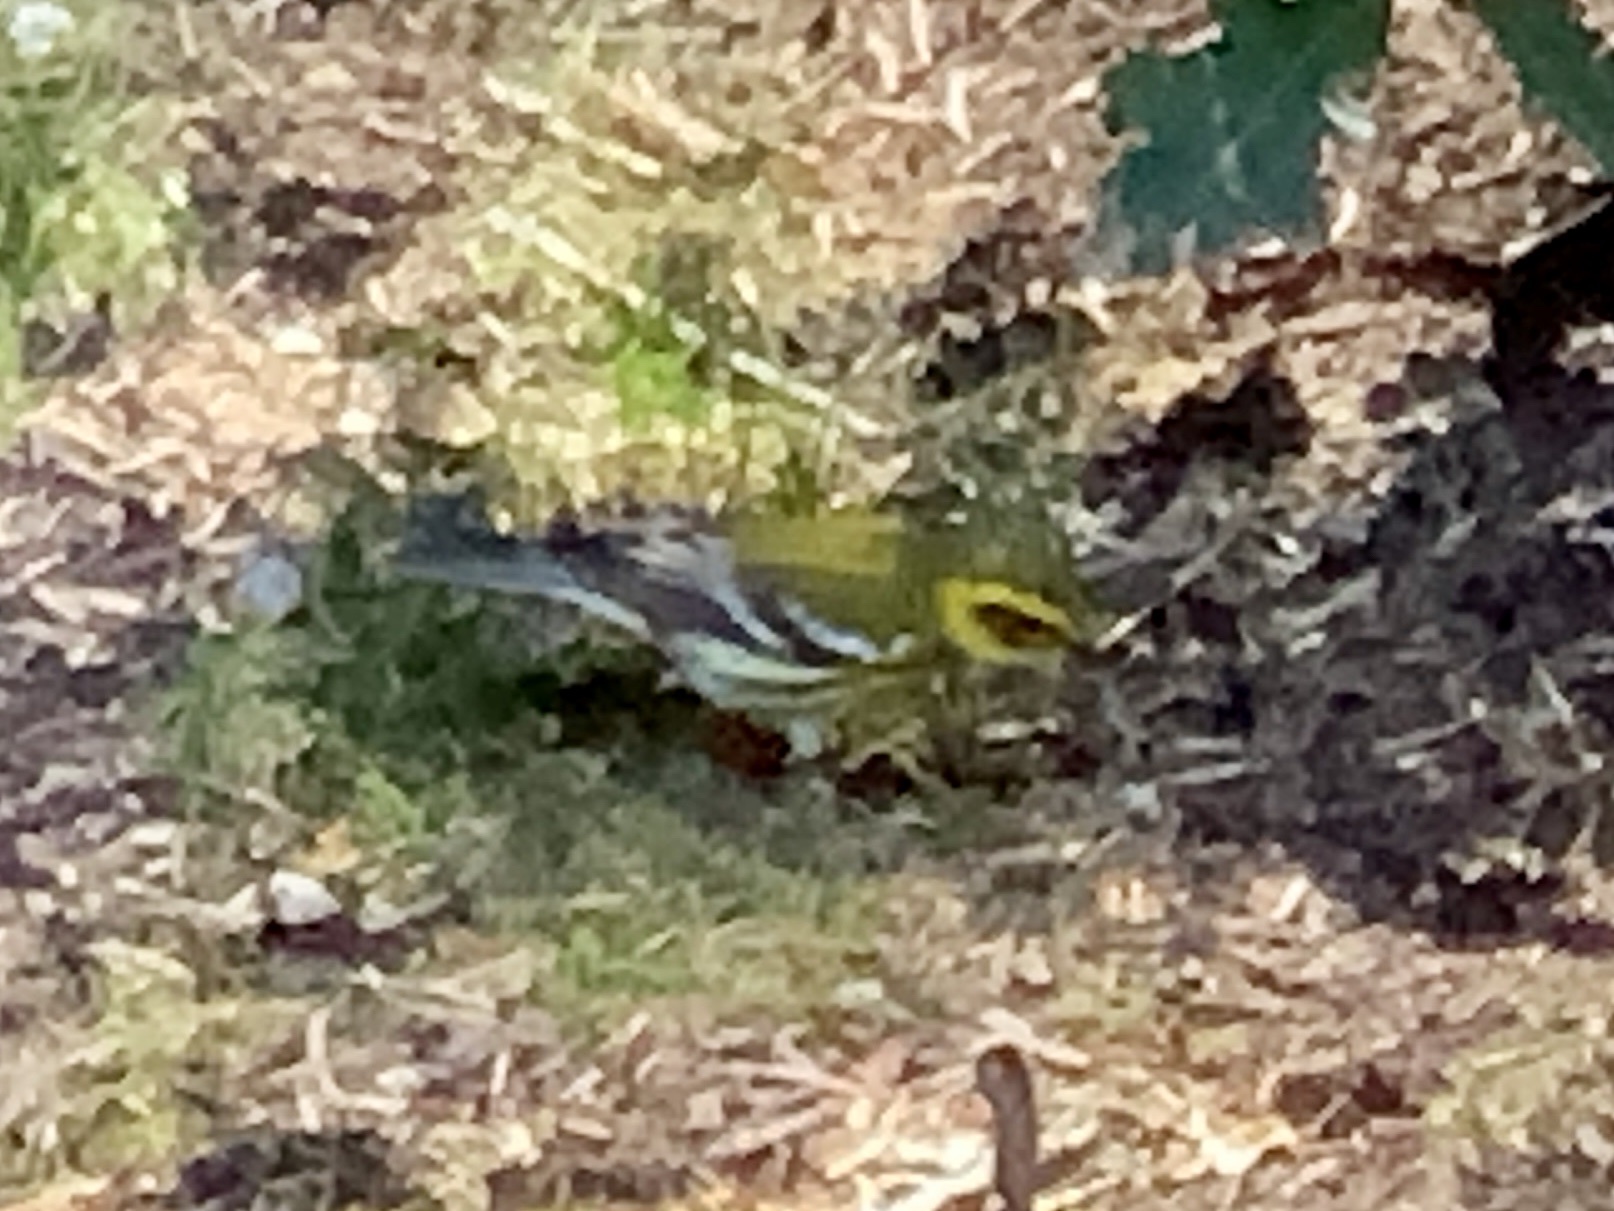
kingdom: Animalia
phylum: Chordata
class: Aves
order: Passeriformes
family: Parulidae
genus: Setophaga
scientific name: Setophaga townsendi
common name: Townsend's warbler
